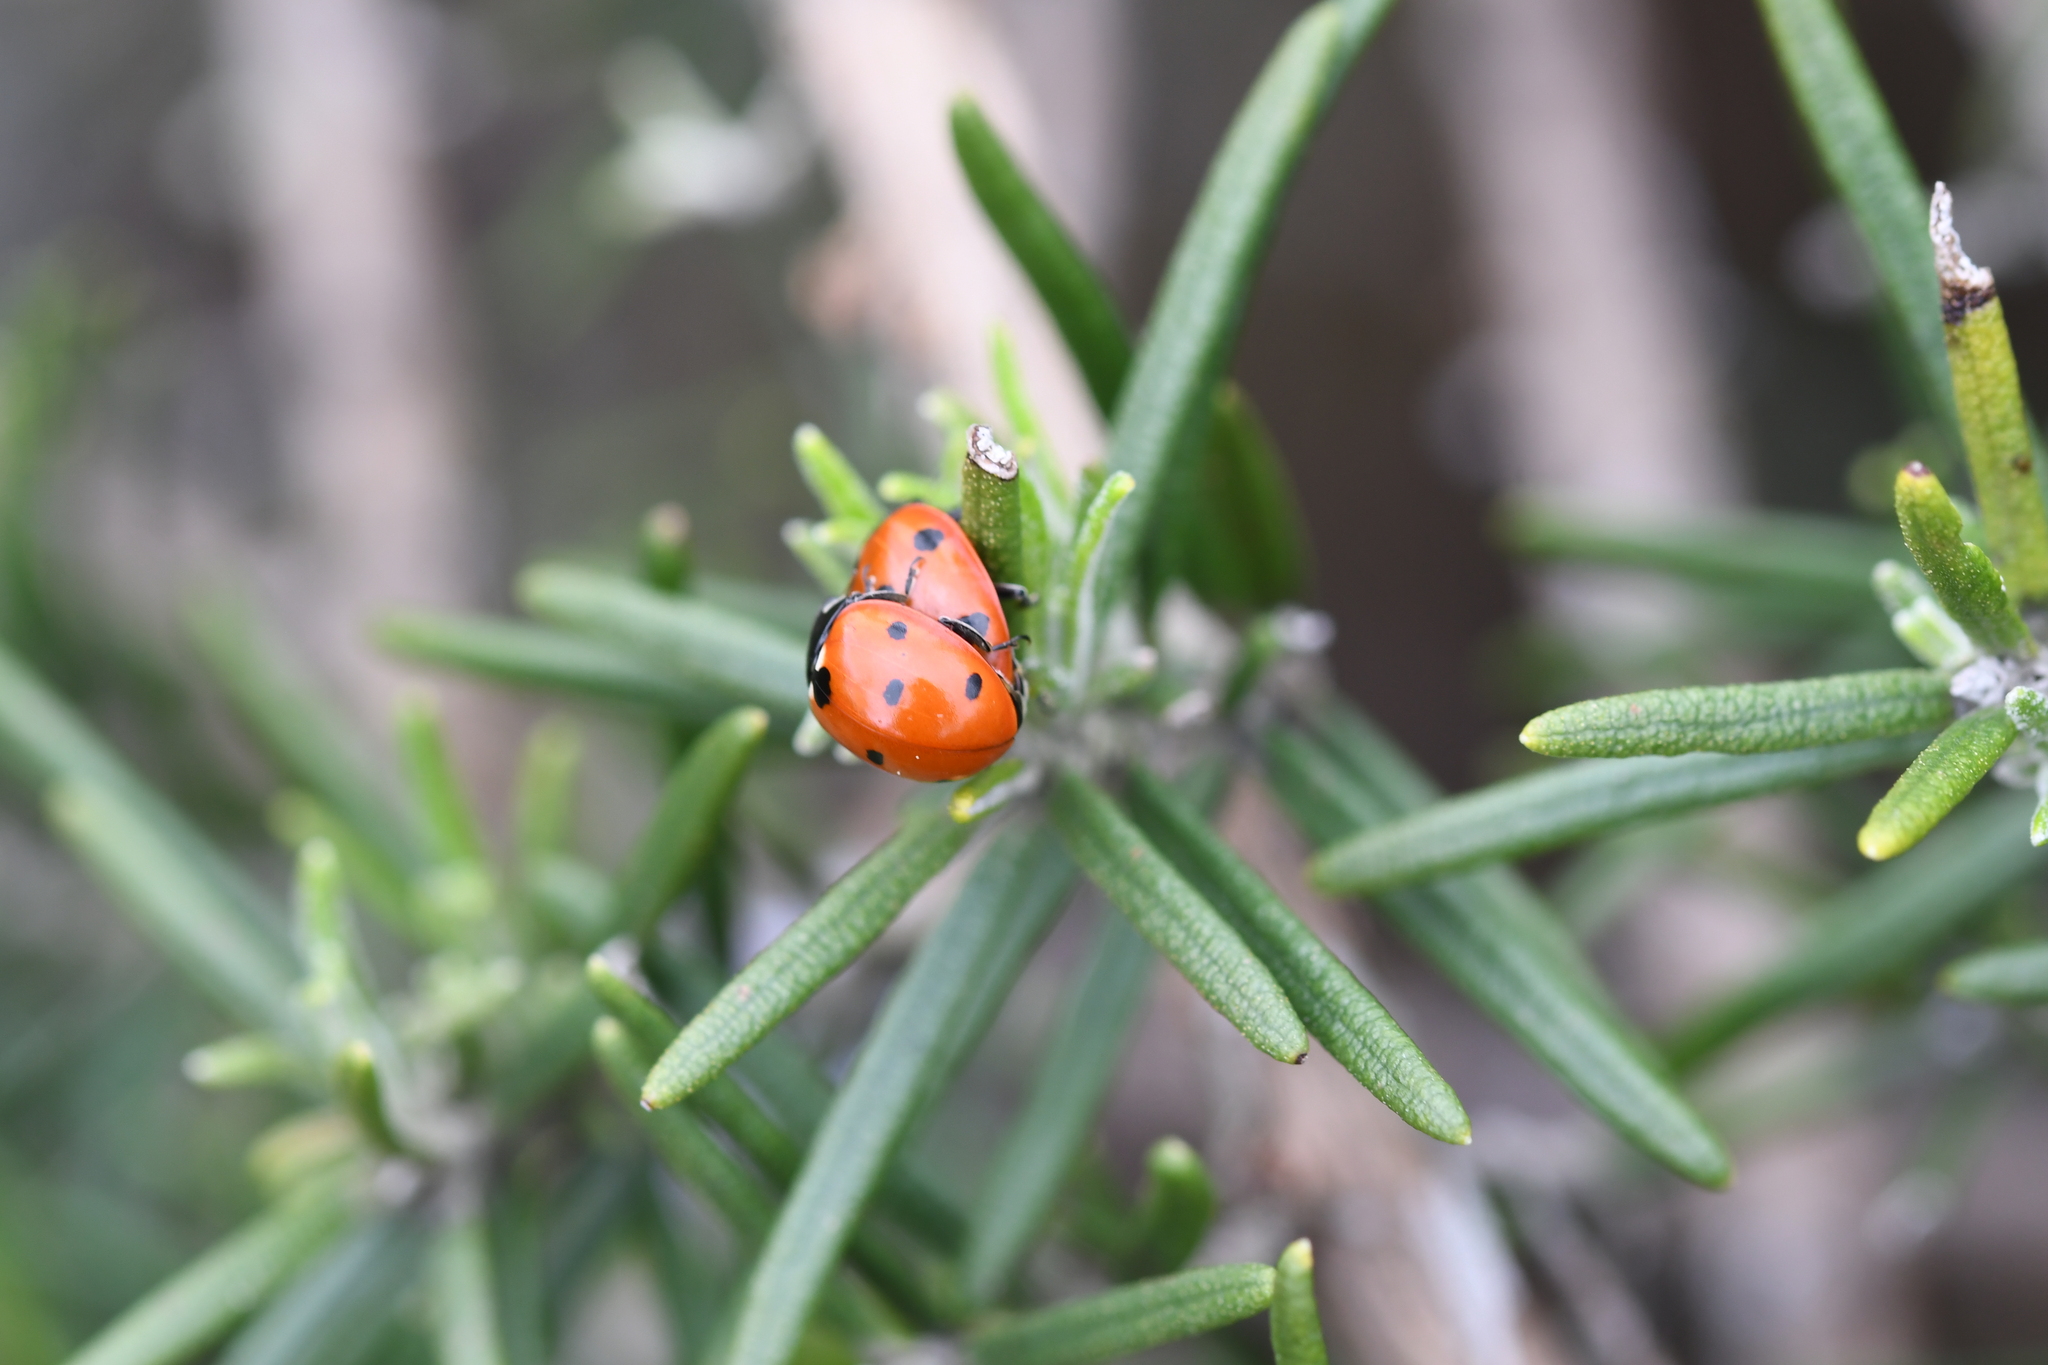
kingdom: Animalia
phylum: Arthropoda
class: Insecta
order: Coleoptera
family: Coccinellidae
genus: Coccinella
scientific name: Coccinella septempunctata
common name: Sevenspotted lady beetle
